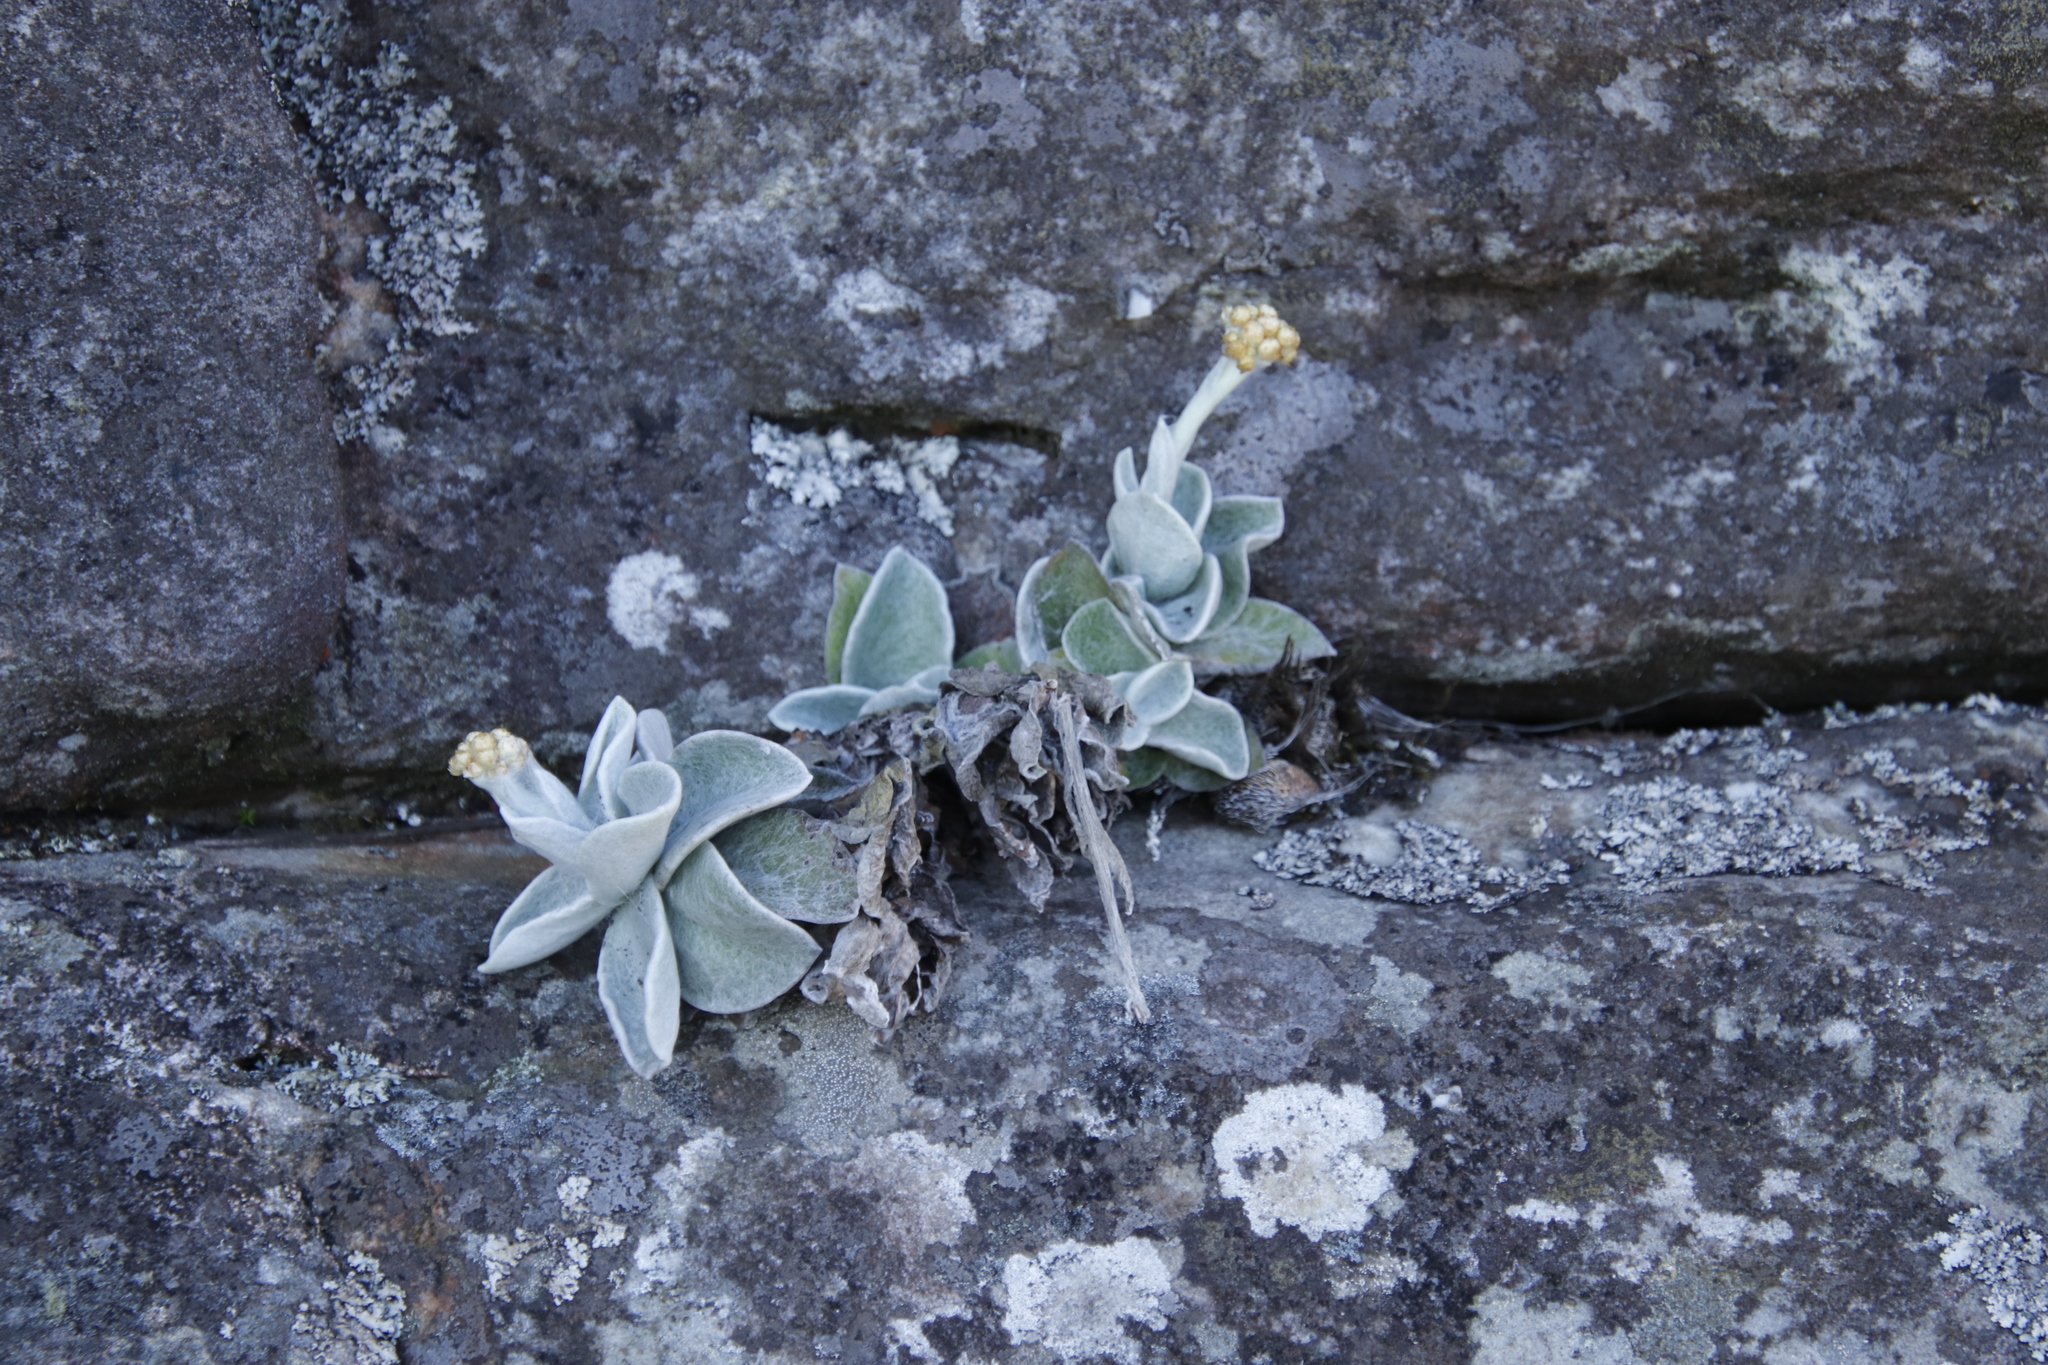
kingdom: Plantae
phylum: Tracheophyta
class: Magnoliopsida
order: Asterales
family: Asteraceae
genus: Helichrysum
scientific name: Helichrysum grandiflorum
